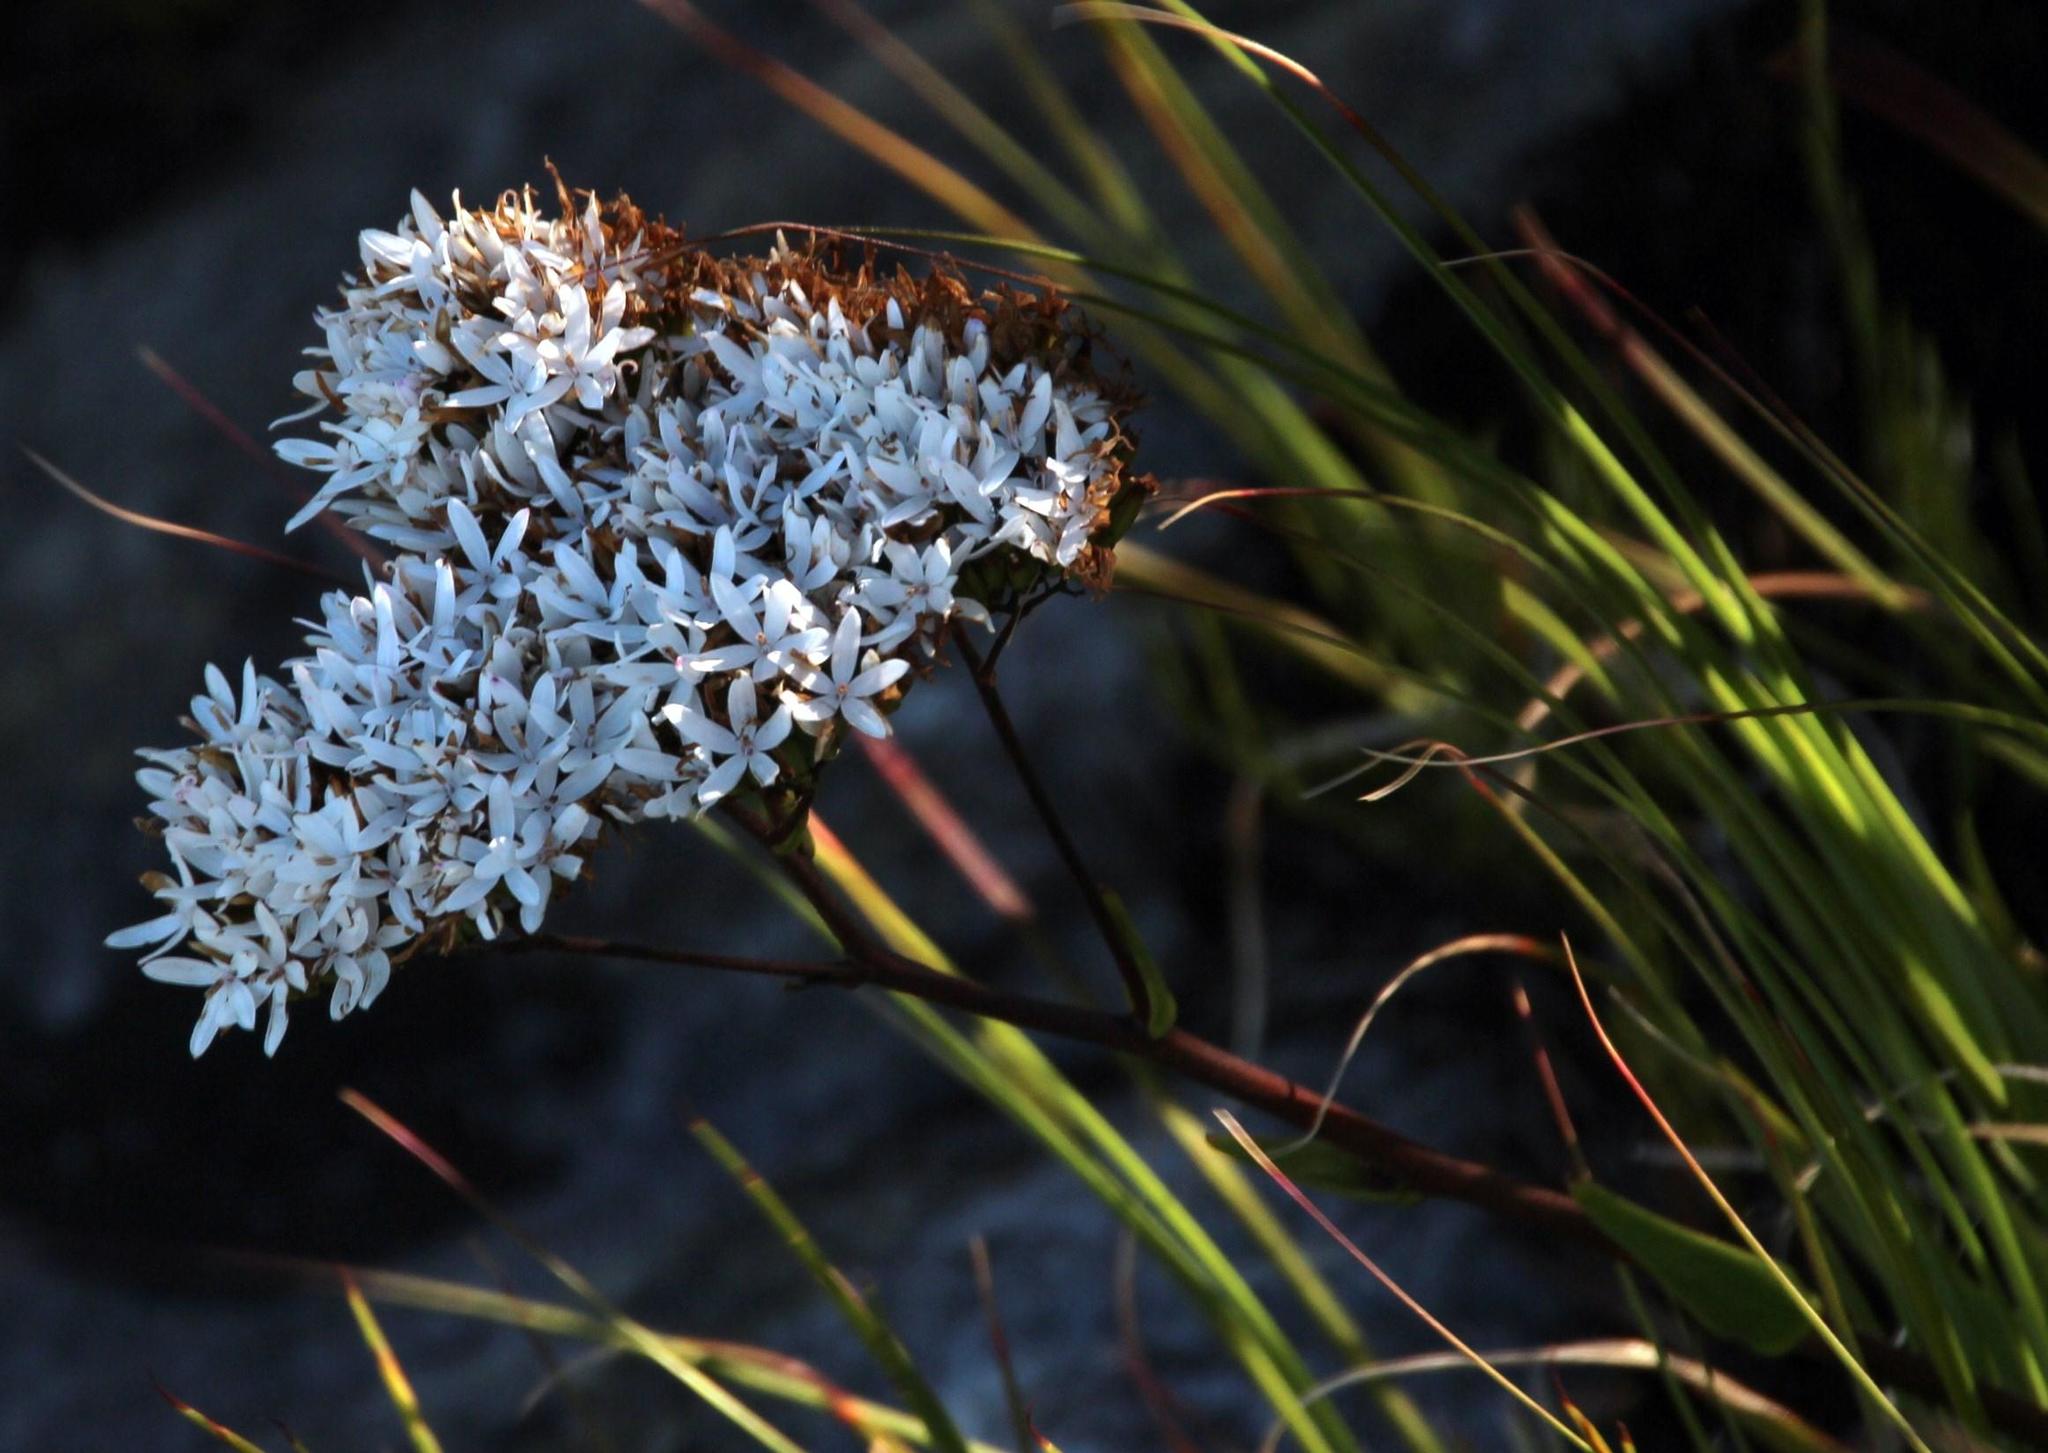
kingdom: Plantae
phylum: Tracheophyta
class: Magnoliopsida
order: Asterales
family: Asteraceae
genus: Corymbium
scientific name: Corymbium glabrum
